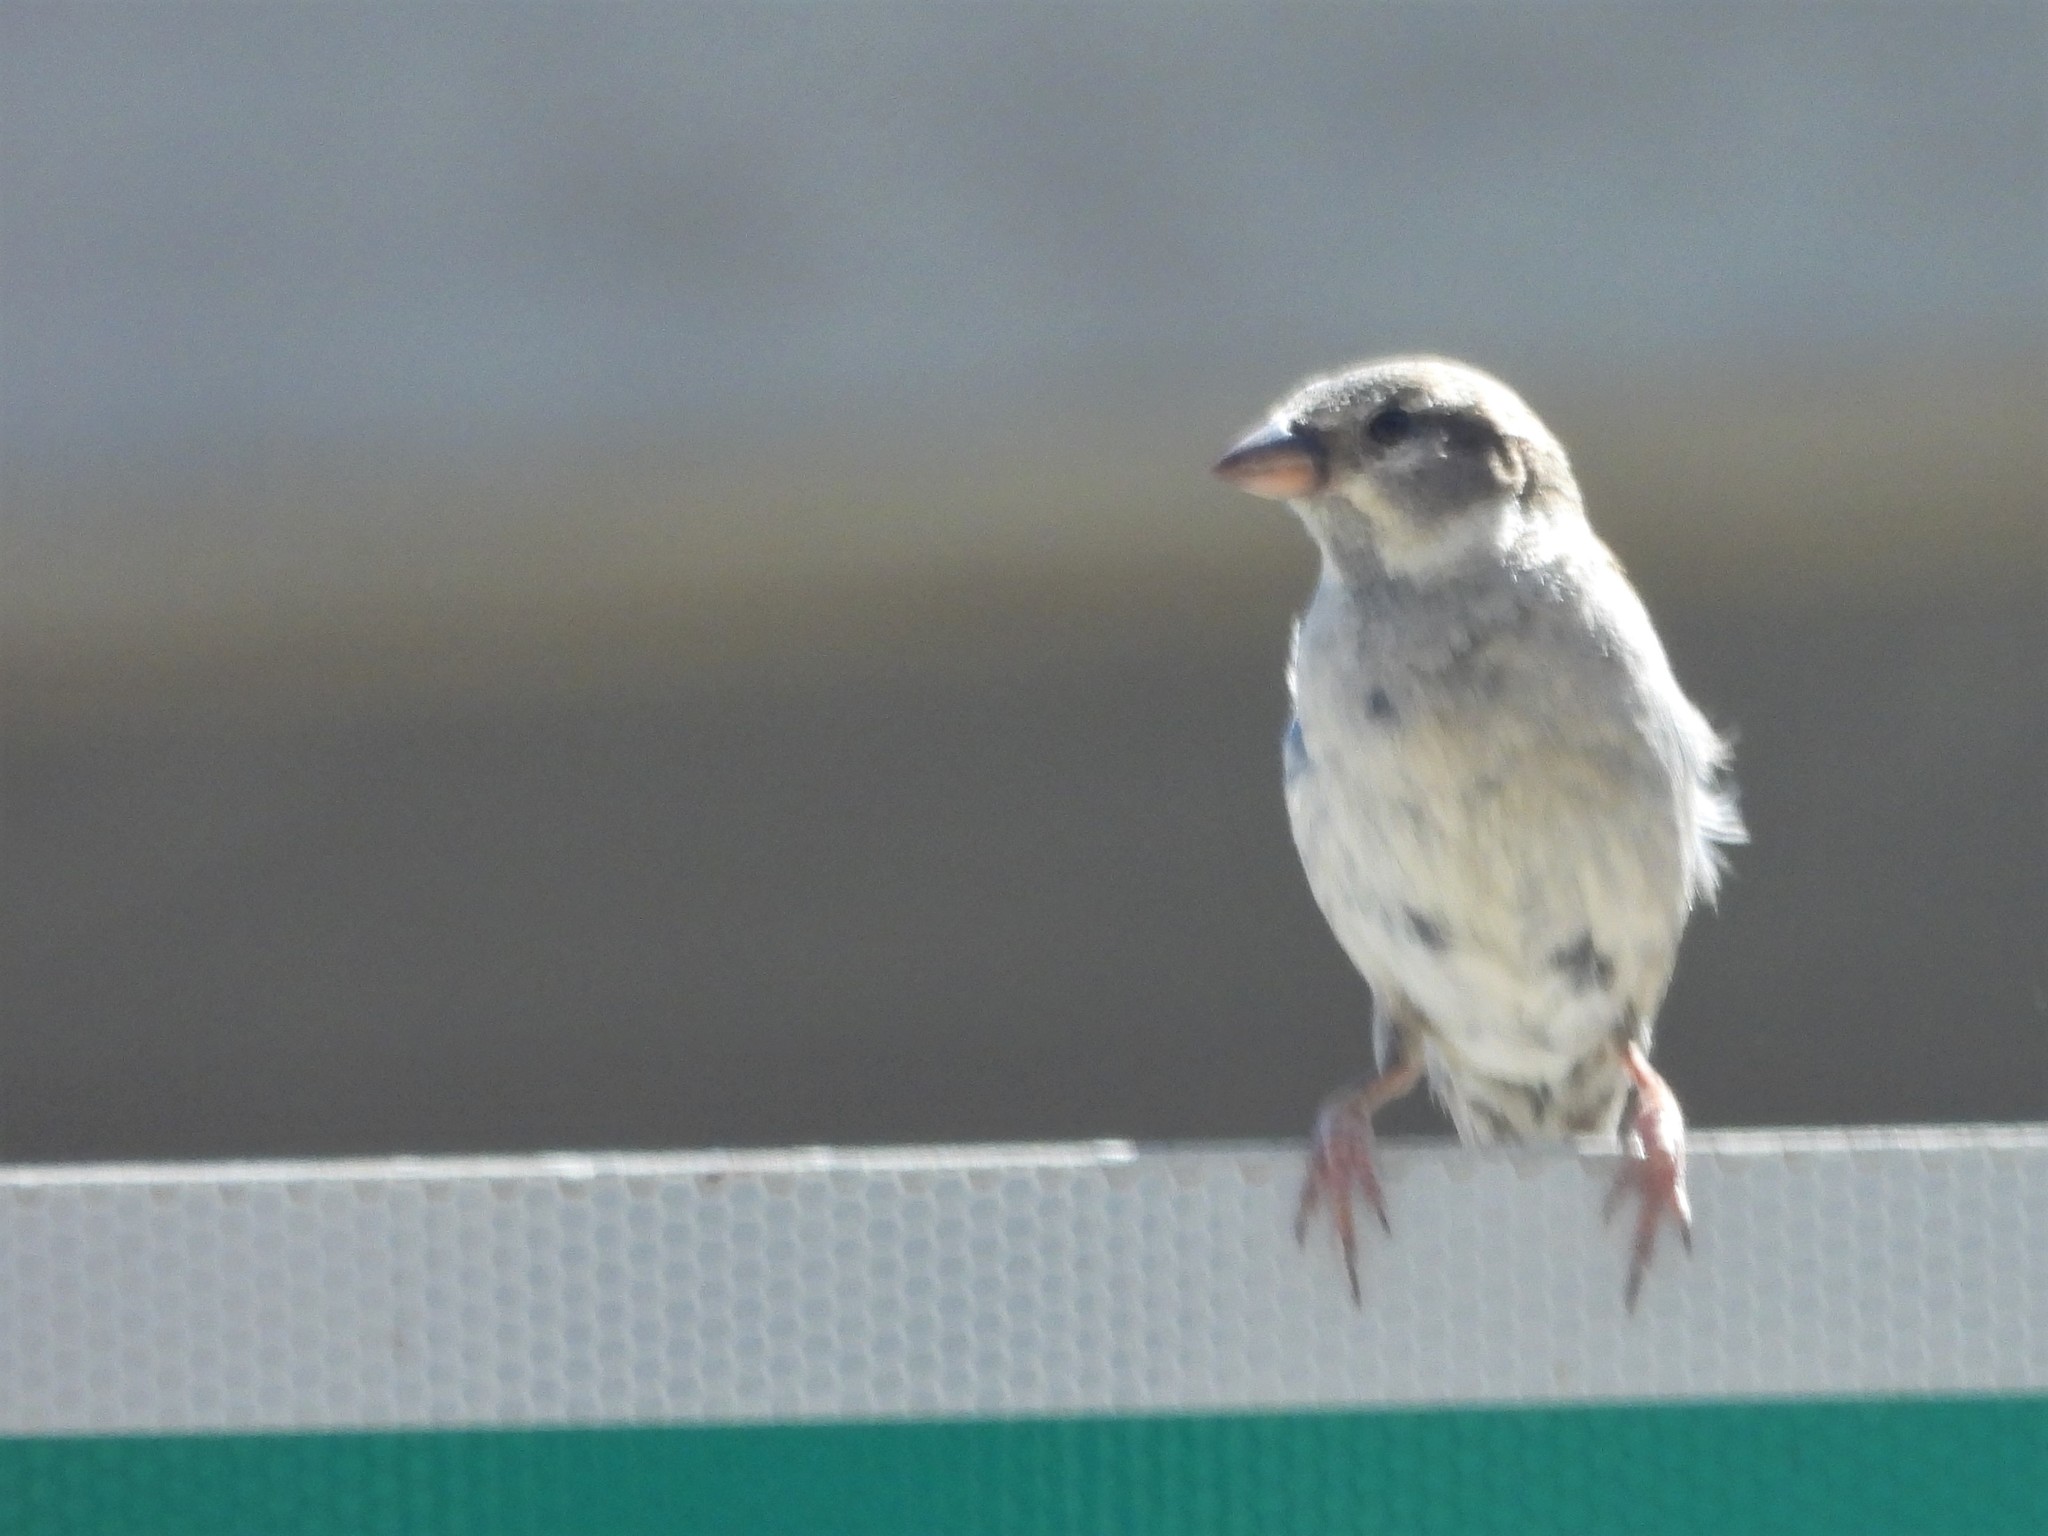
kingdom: Animalia
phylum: Chordata
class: Aves
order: Passeriformes
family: Passeridae
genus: Passer
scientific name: Passer domesticus
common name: House sparrow
